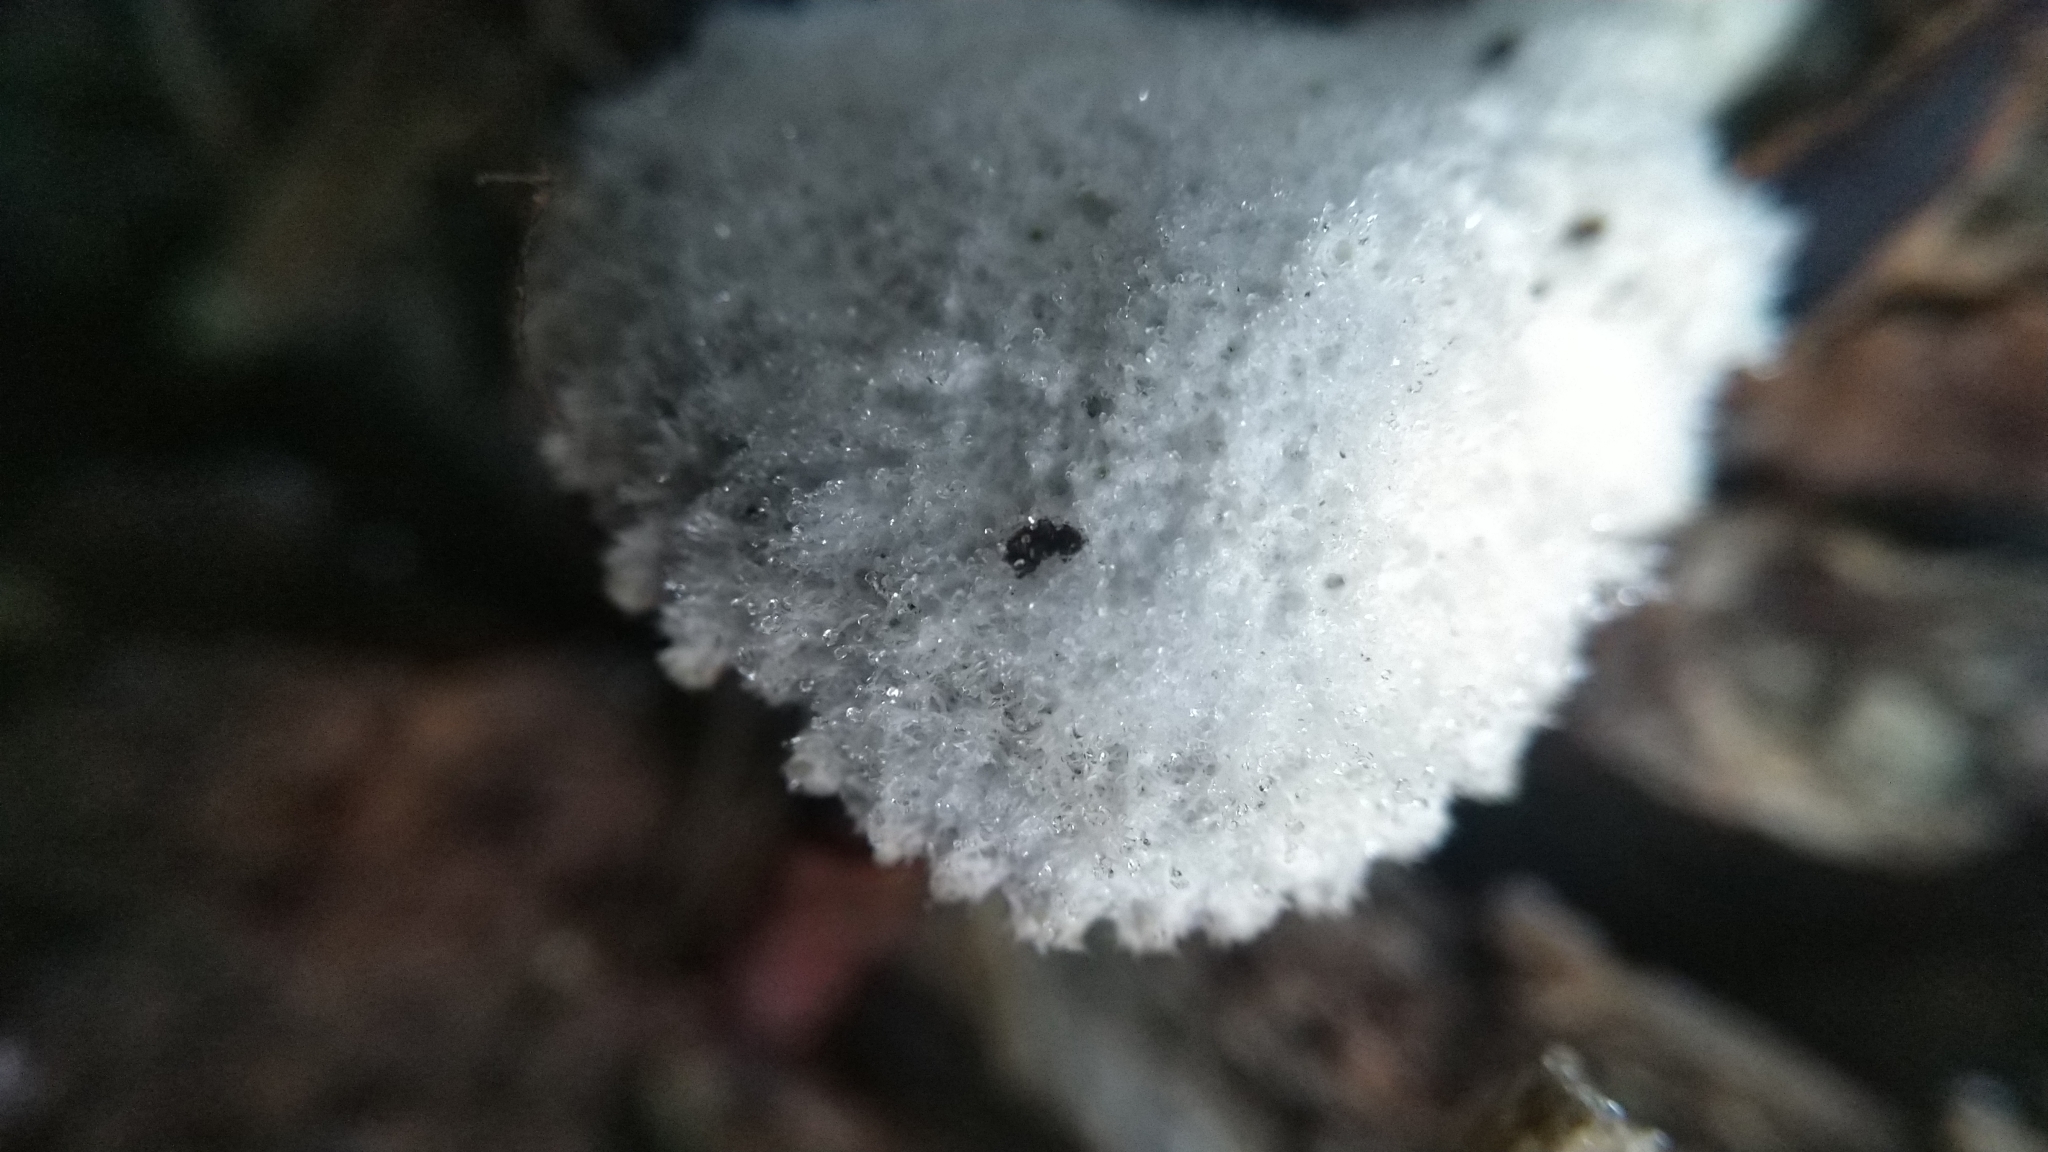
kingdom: Fungi
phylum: Basidiomycota
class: Agaricomycetes
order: Agaricales
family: Schizophyllaceae
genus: Schizophyllum
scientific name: Schizophyllum commune
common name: Common porecrust
